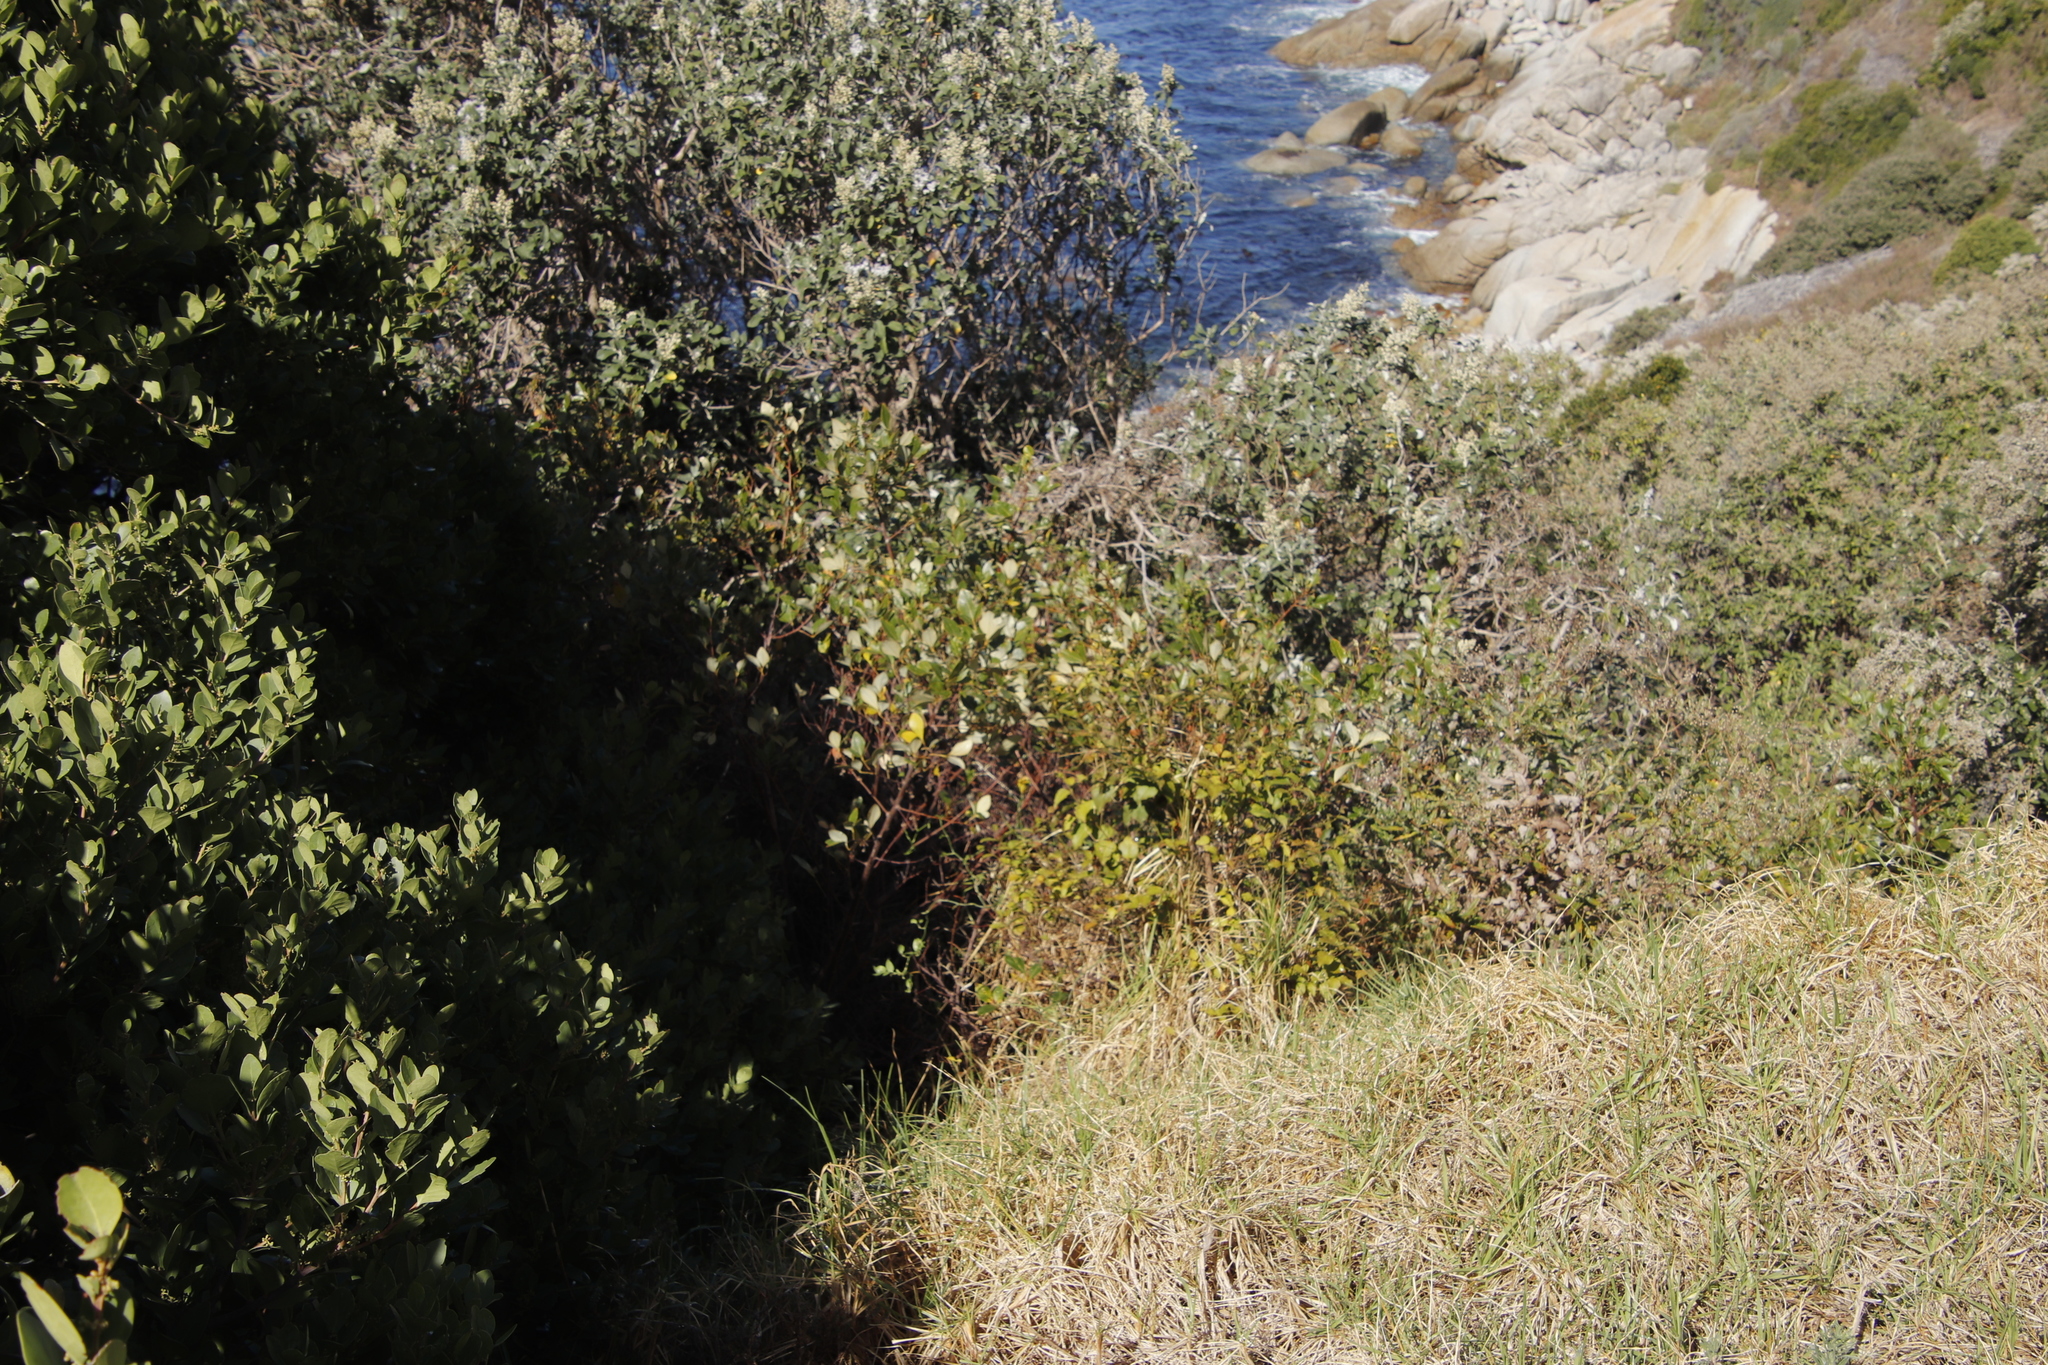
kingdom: Plantae
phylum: Tracheophyta
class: Magnoliopsida
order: Sapindales
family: Anacardiaceae
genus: Searsia
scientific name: Searsia tomentosa
